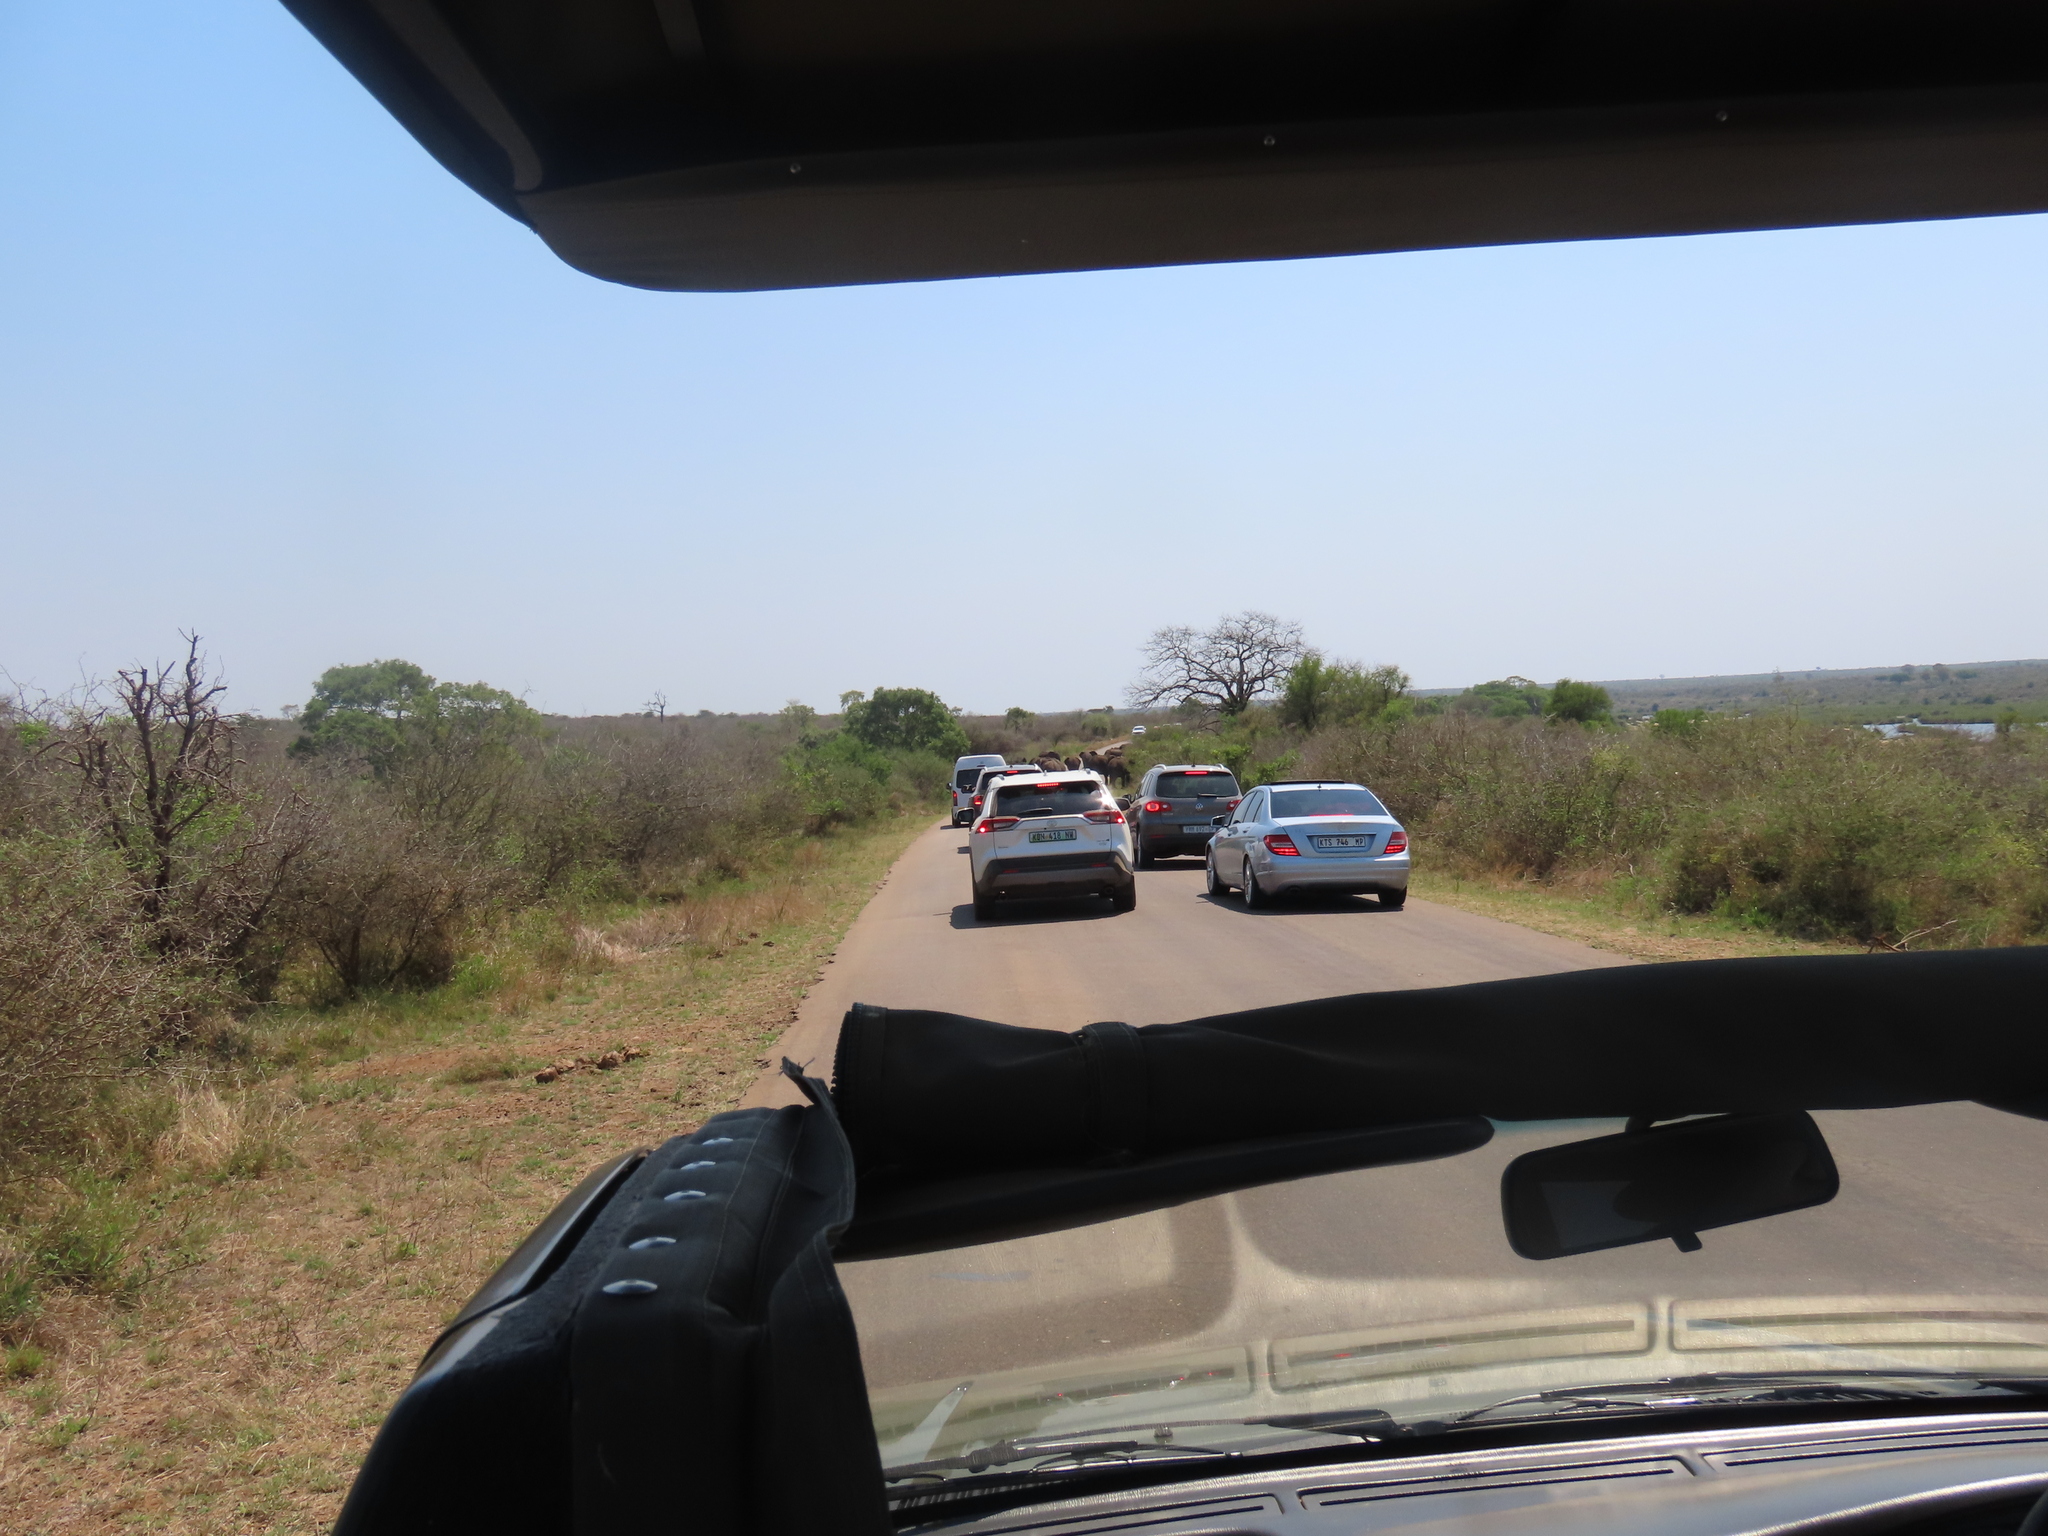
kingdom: Animalia
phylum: Chordata
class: Mammalia
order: Artiodactyla
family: Bovidae
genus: Aepyceros
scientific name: Aepyceros melampus
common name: Impala
